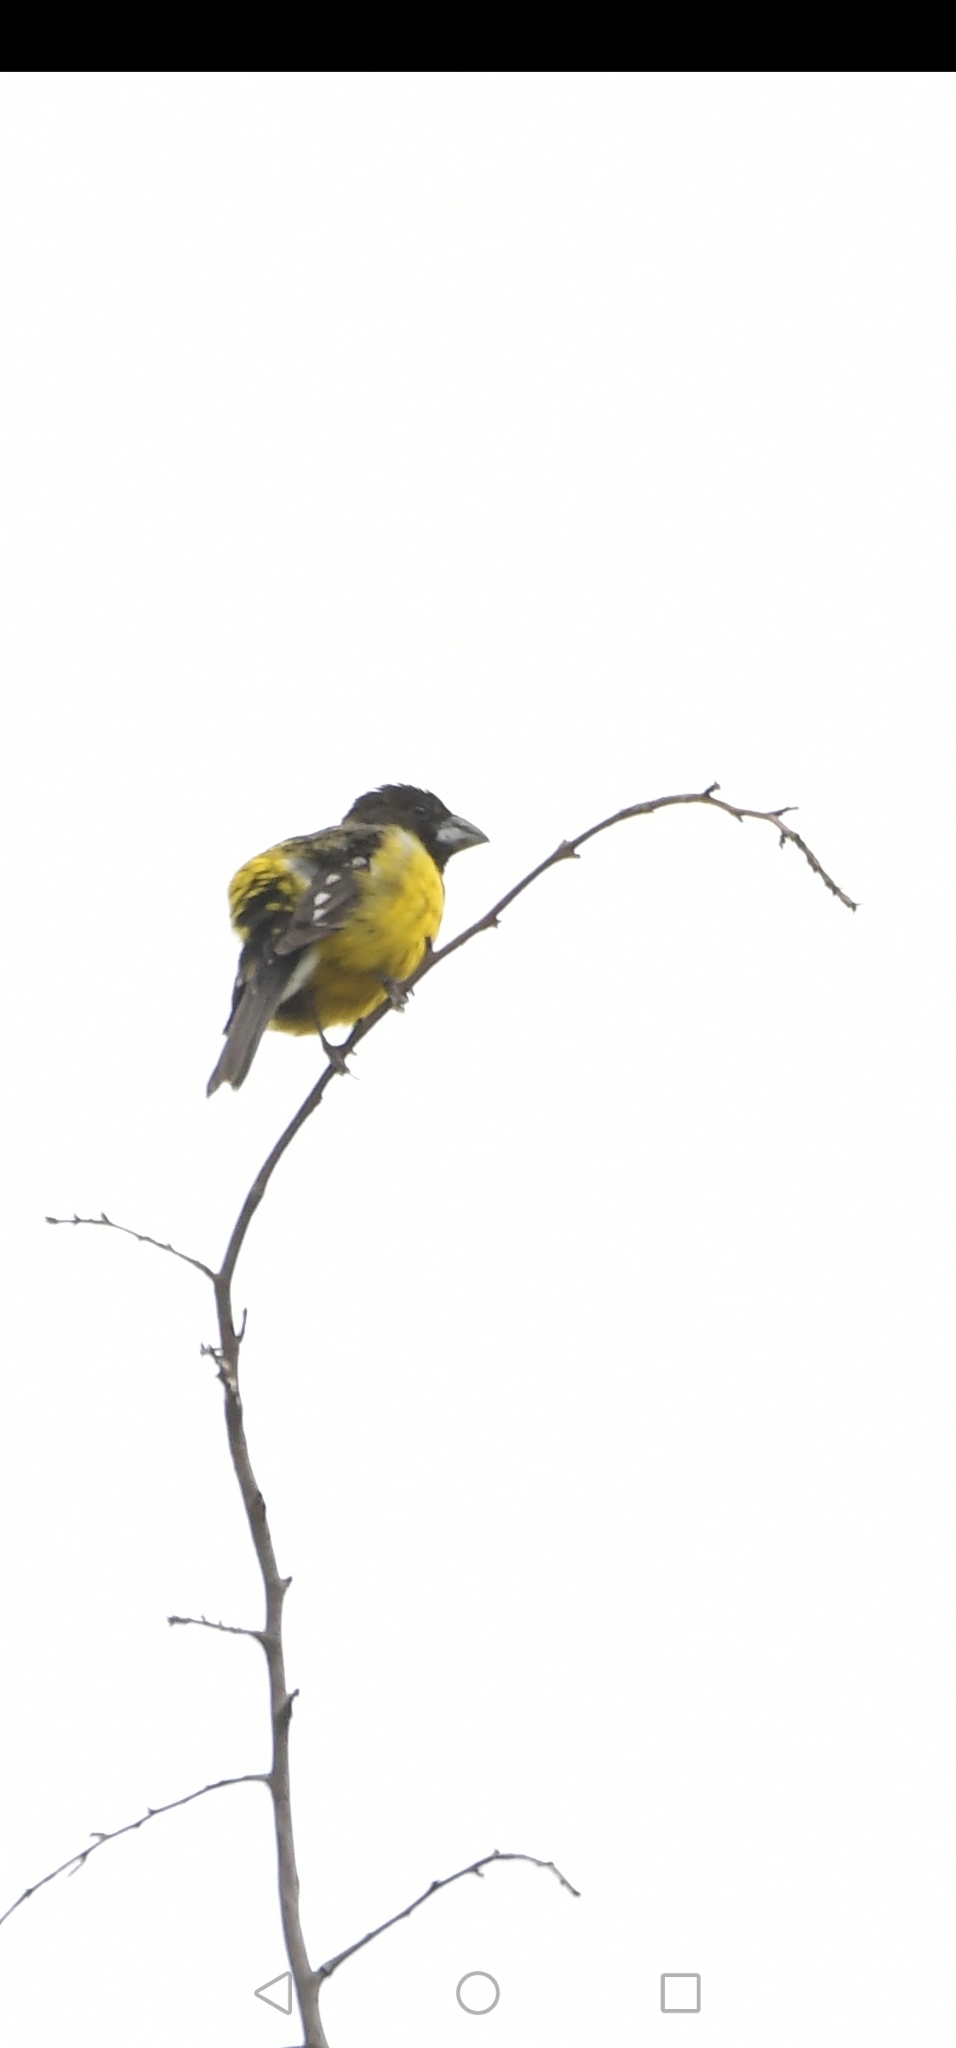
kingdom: Animalia
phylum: Chordata
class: Aves
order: Passeriformes
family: Cardinalidae
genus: Pheucticus
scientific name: Pheucticus aureoventris
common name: Black-backed grosbeak
